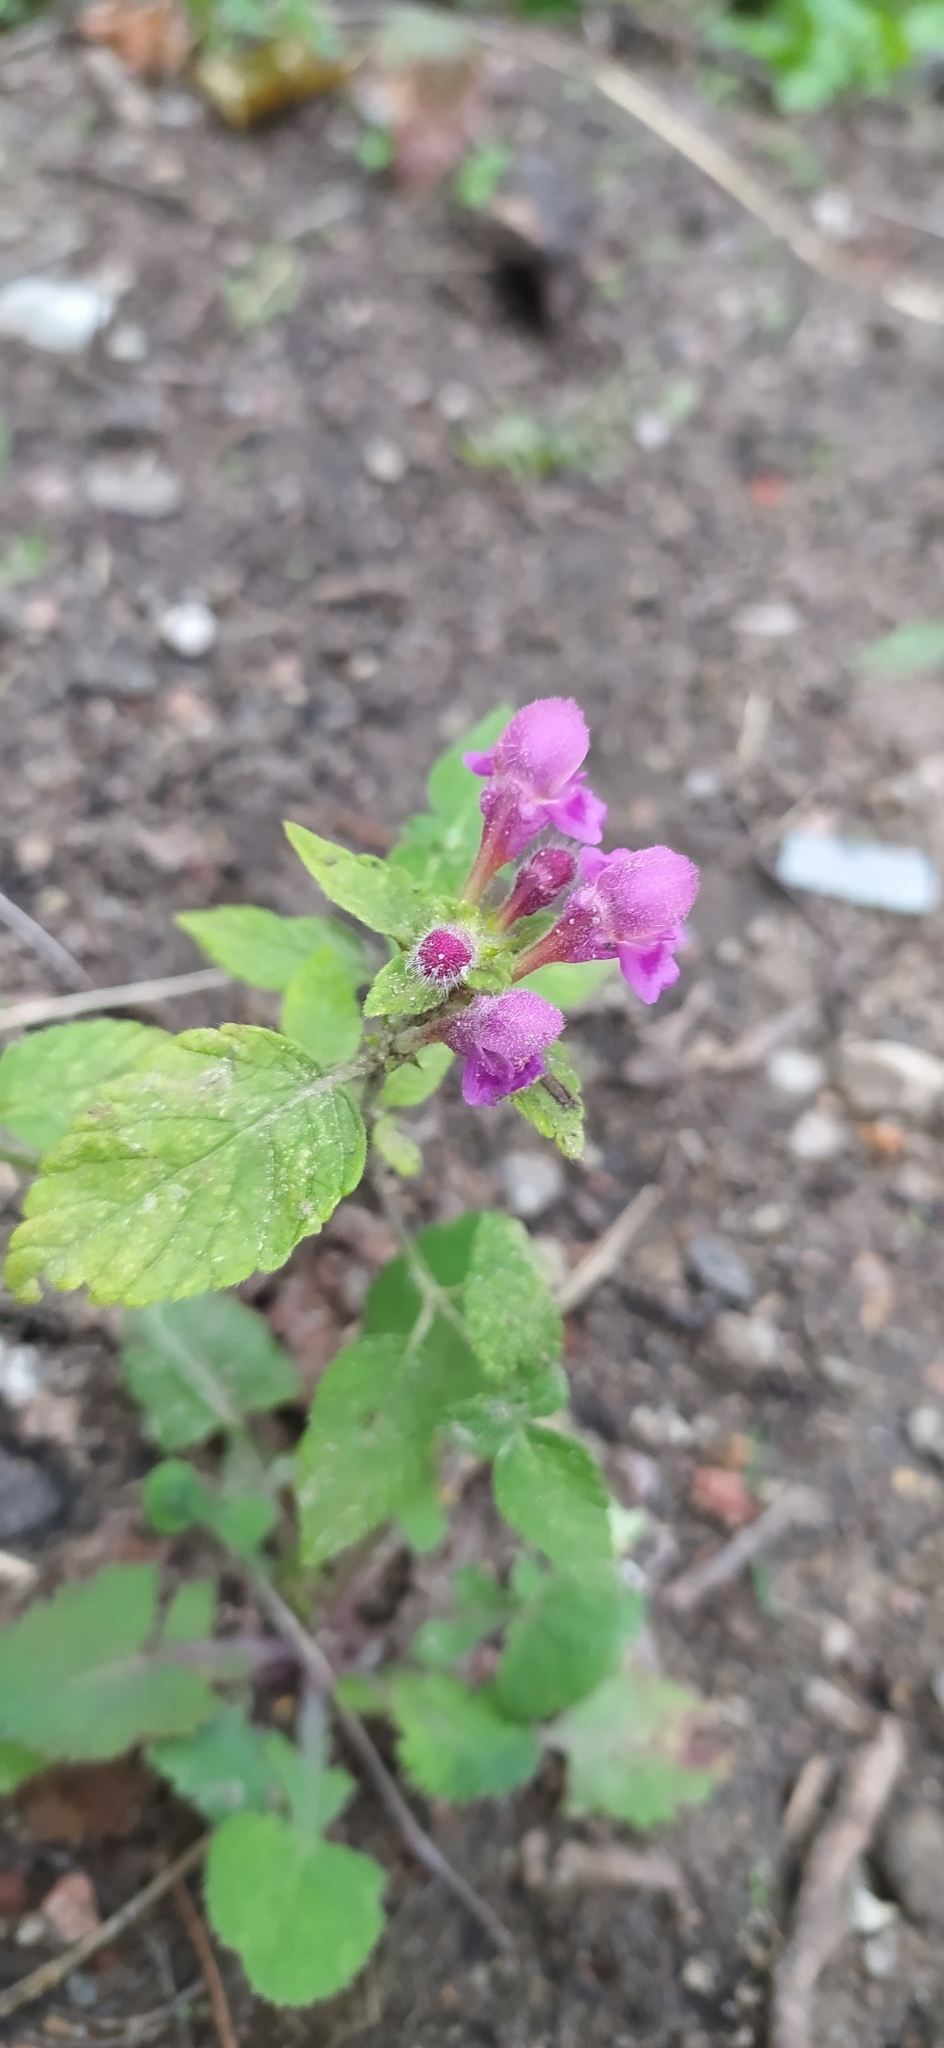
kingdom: Plantae
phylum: Tracheophyta
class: Magnoliopsida
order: Lamiales
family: Lamiaceae
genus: Galeopsis
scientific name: Galeopsis pubescens
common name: Downy hemp-nettle
